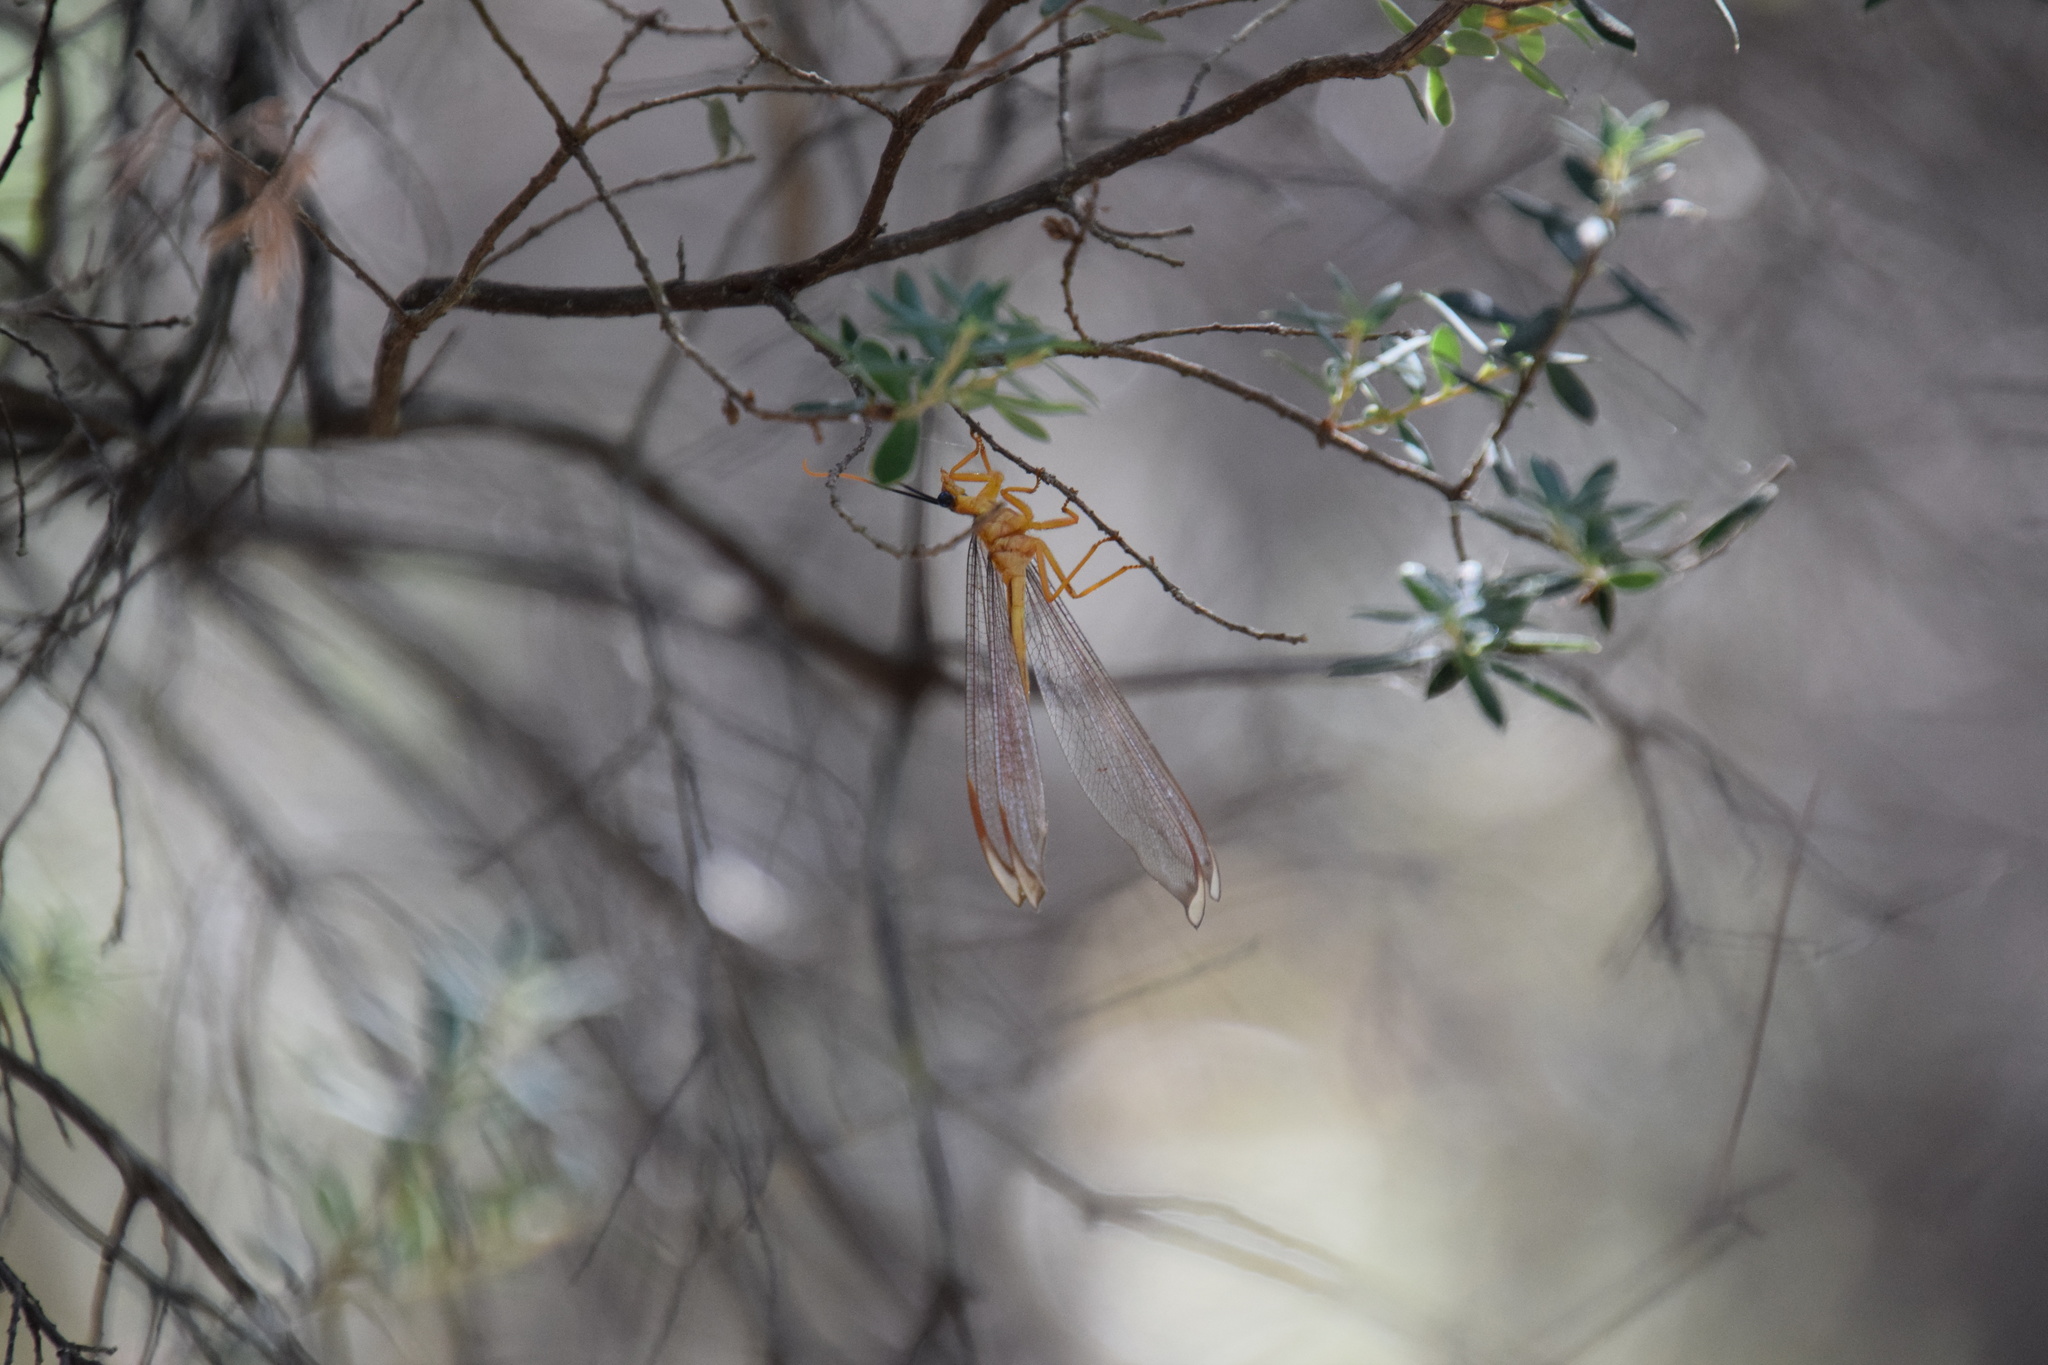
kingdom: Animalia
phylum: Arthropoda
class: Insecta
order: Neuroptera
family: Nymphidae
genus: Nymphes
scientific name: Nymphes myrmeleonoides
